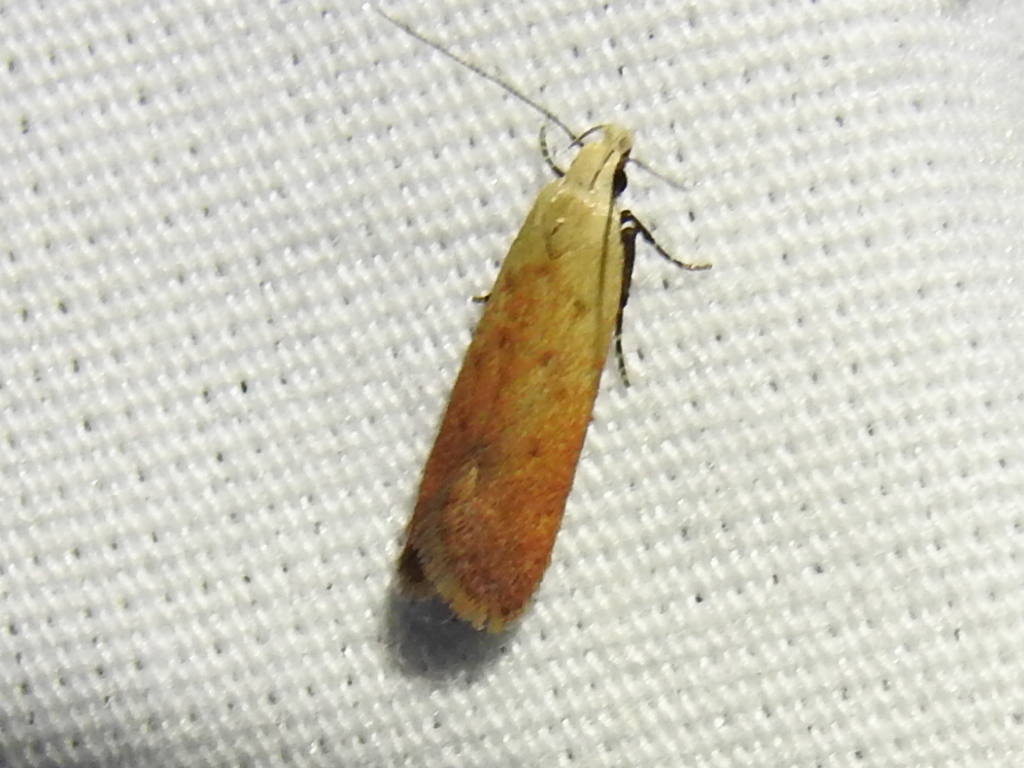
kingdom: Animalia
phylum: Arthropoda
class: Insecta
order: Lepidoptera
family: Gelechiidae
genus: Anacampsis
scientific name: Anacampsis fullonella
